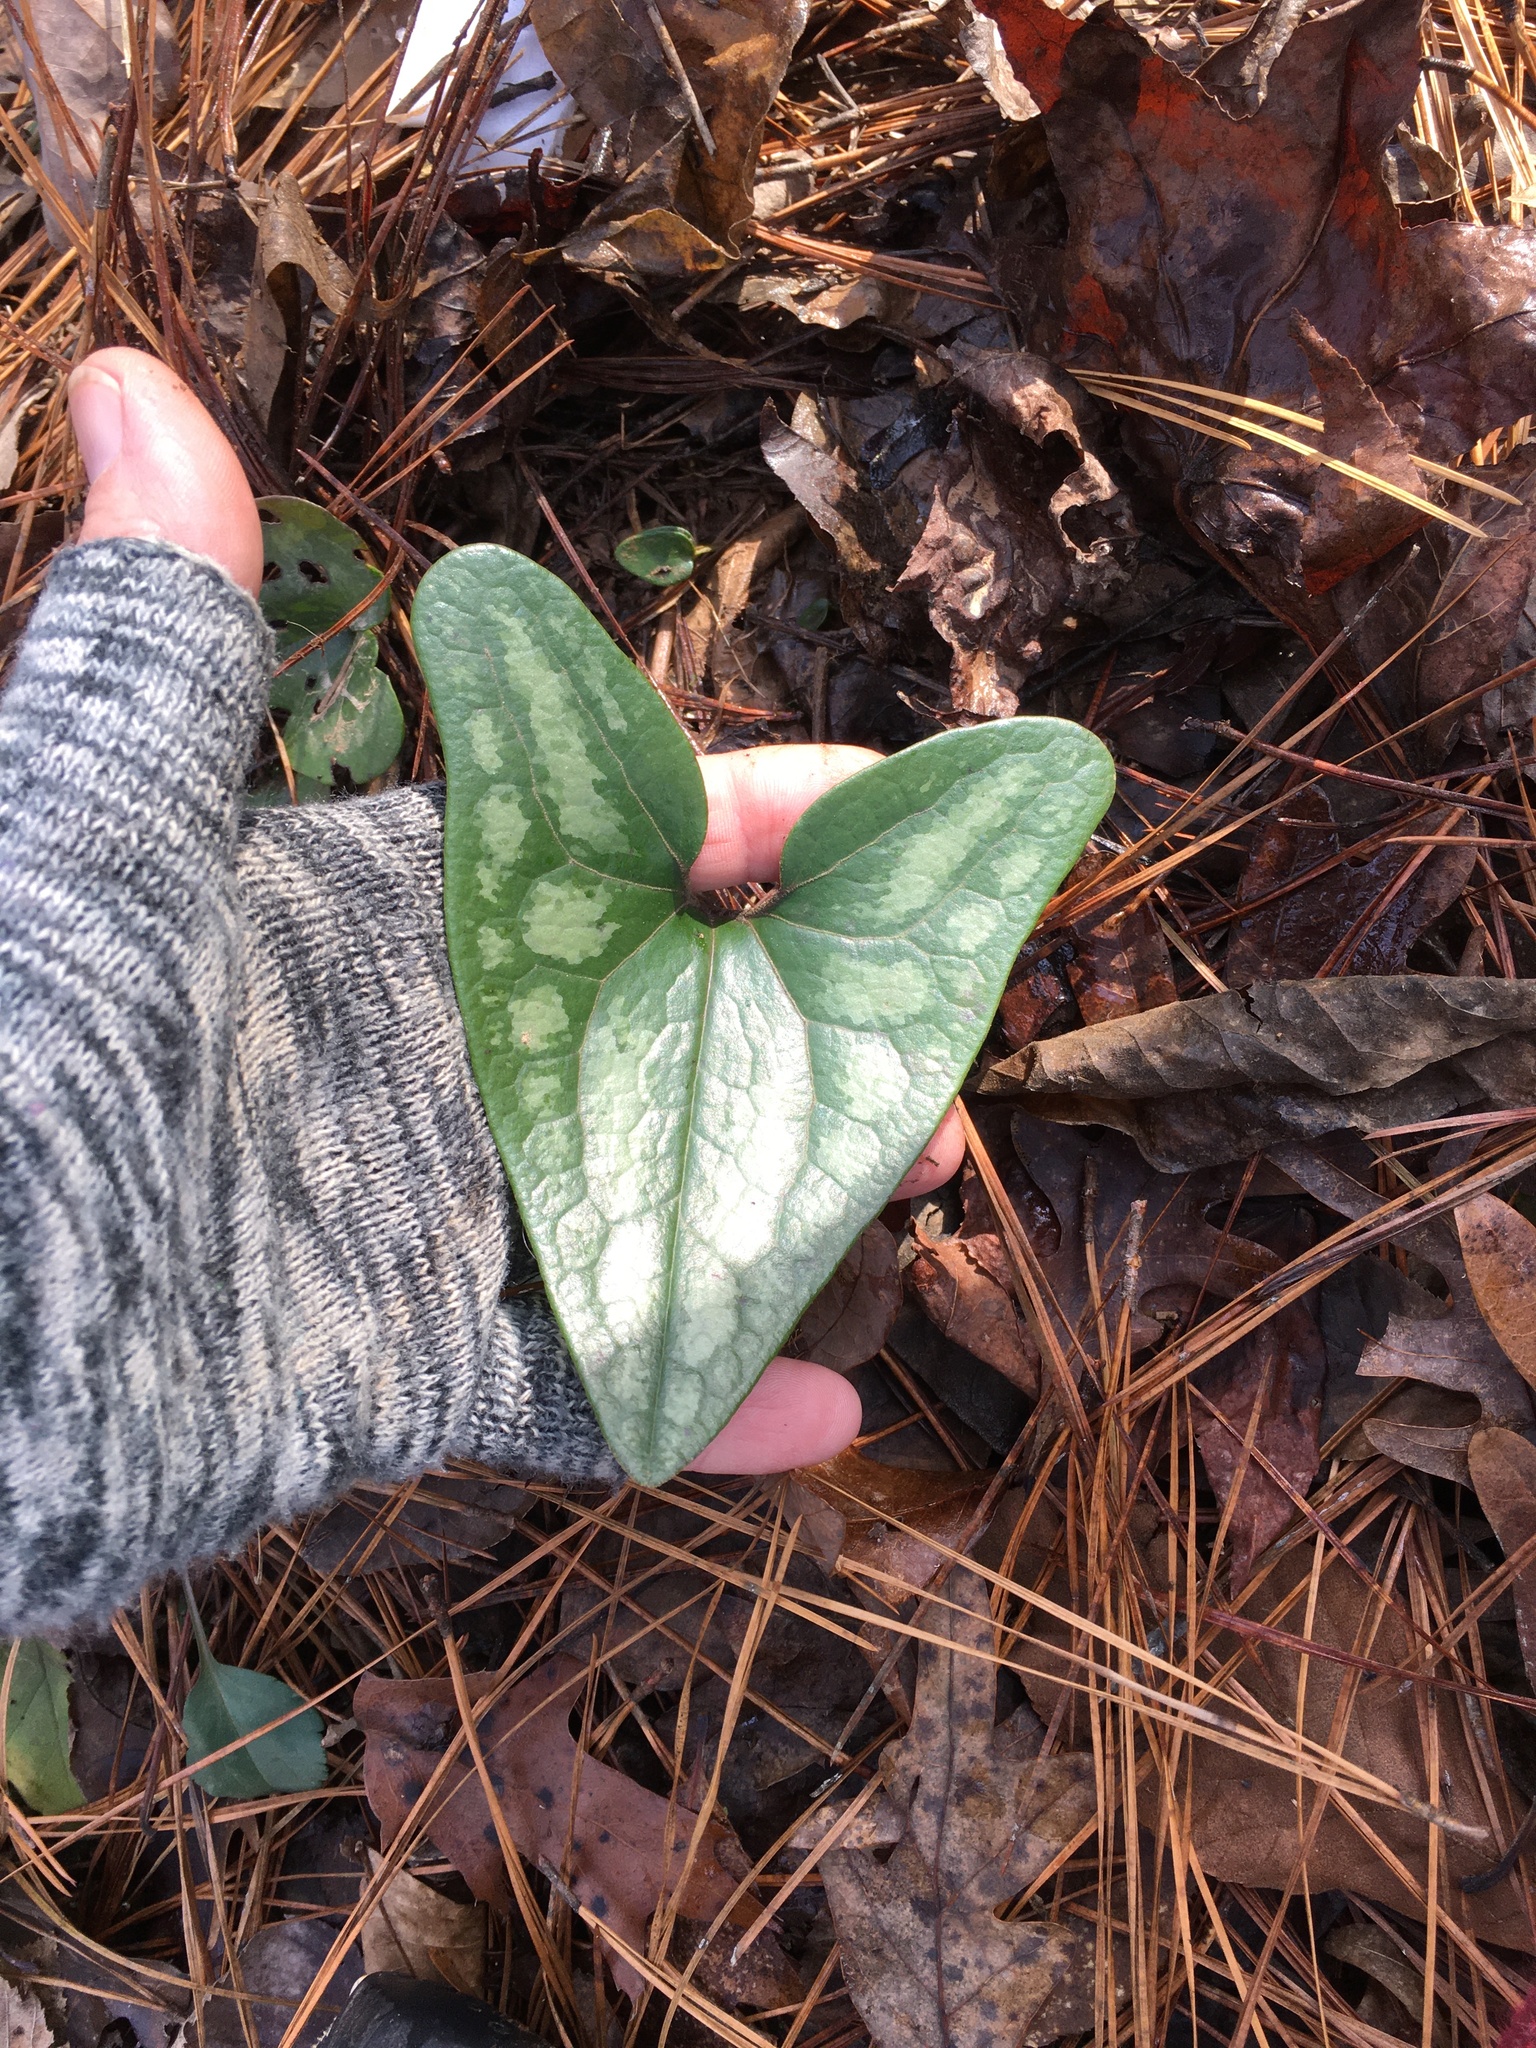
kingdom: Plantae
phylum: Tracheophyta
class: Magnoliopsida
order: Piperales
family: Aristolochiaceae
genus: Hexastylis
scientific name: Hexastylis arifolia
